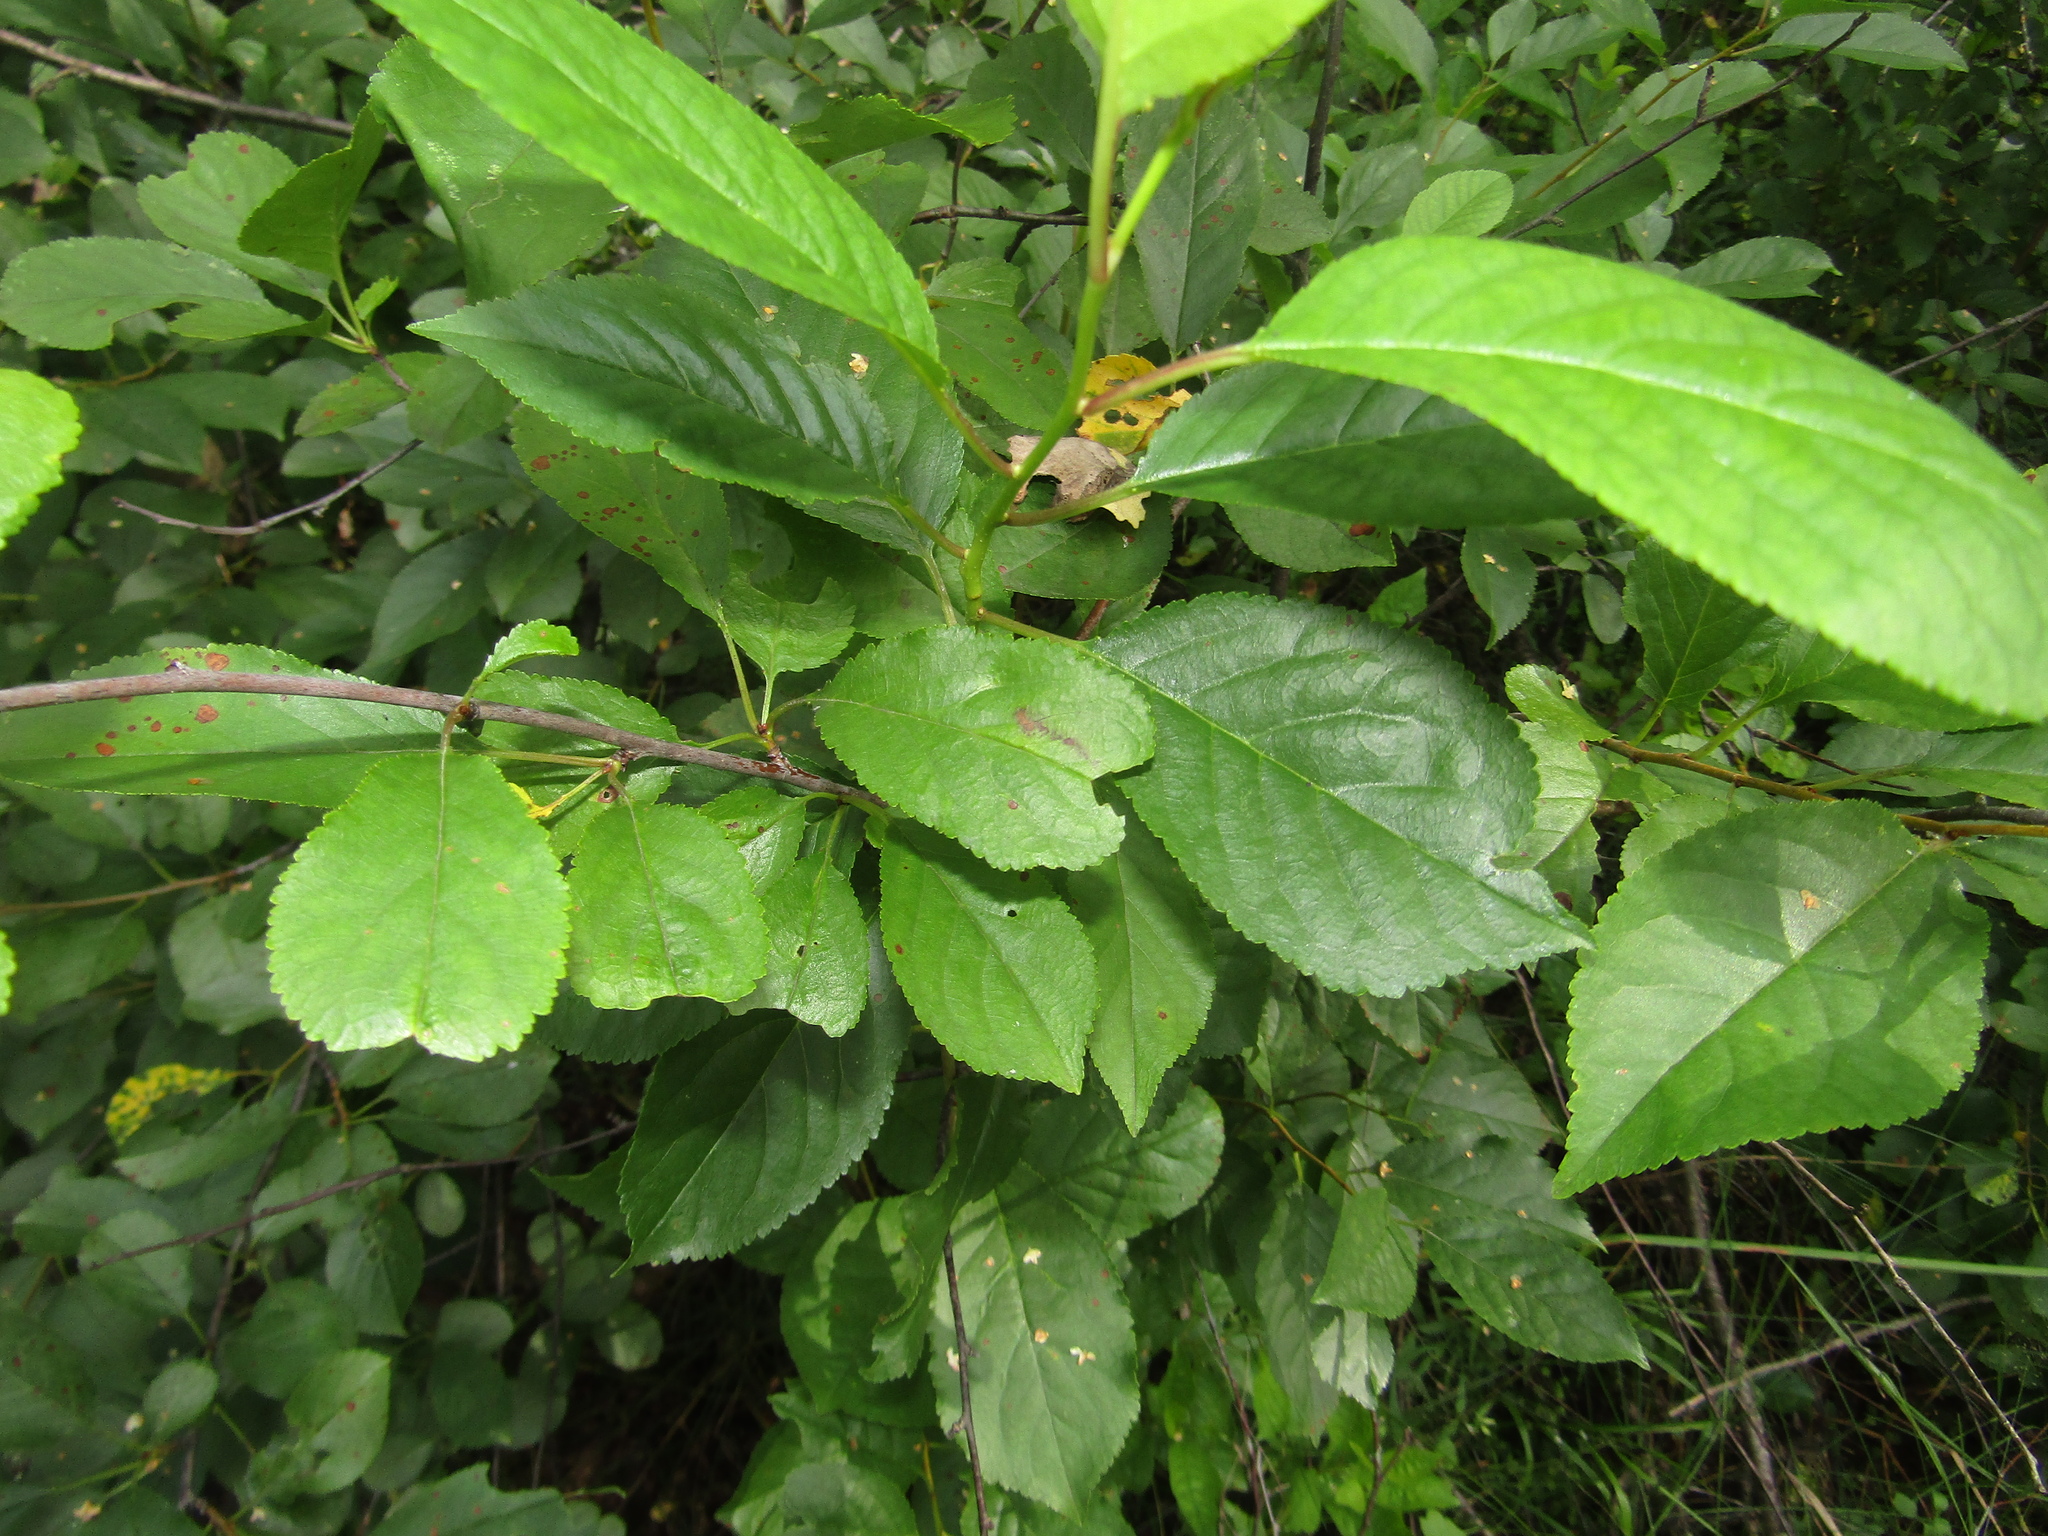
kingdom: Plantae
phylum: Tracheophyta
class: Magnoliopsida
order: Rosales
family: Rosaceae
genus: Prunus
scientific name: Prunus cerasus
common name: Morello cherry
